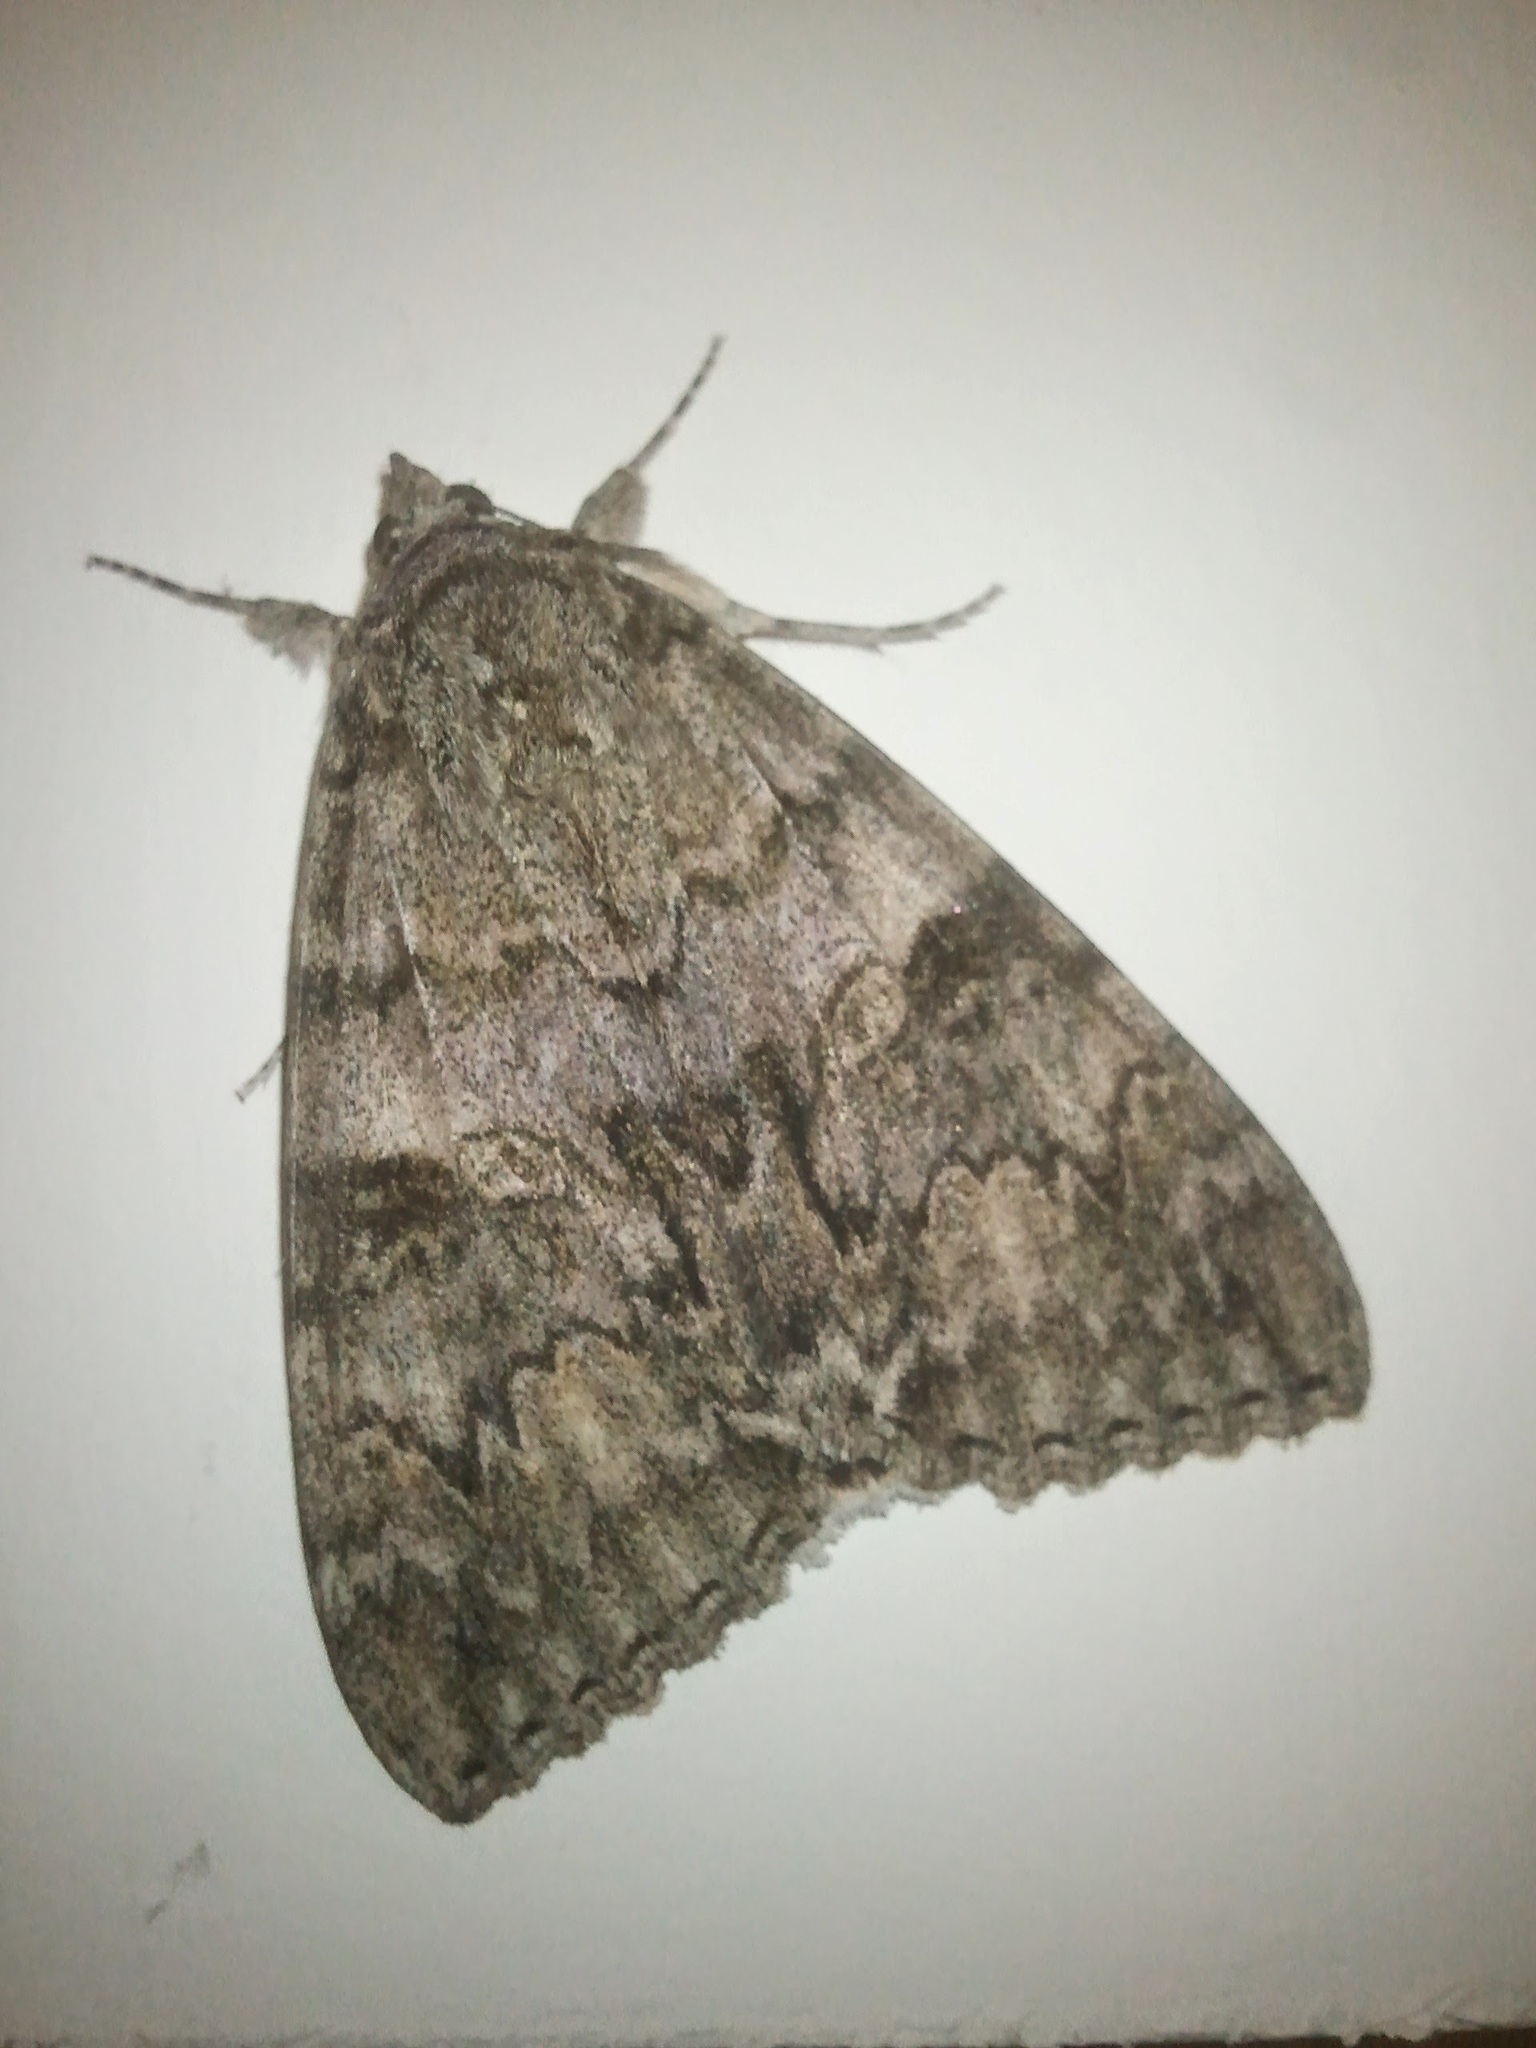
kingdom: Animalia
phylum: Arthropoda
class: Insecta
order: Lepidoptera
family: Erebidae
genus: Catocala
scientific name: Catocala nupta
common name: Red underwing
